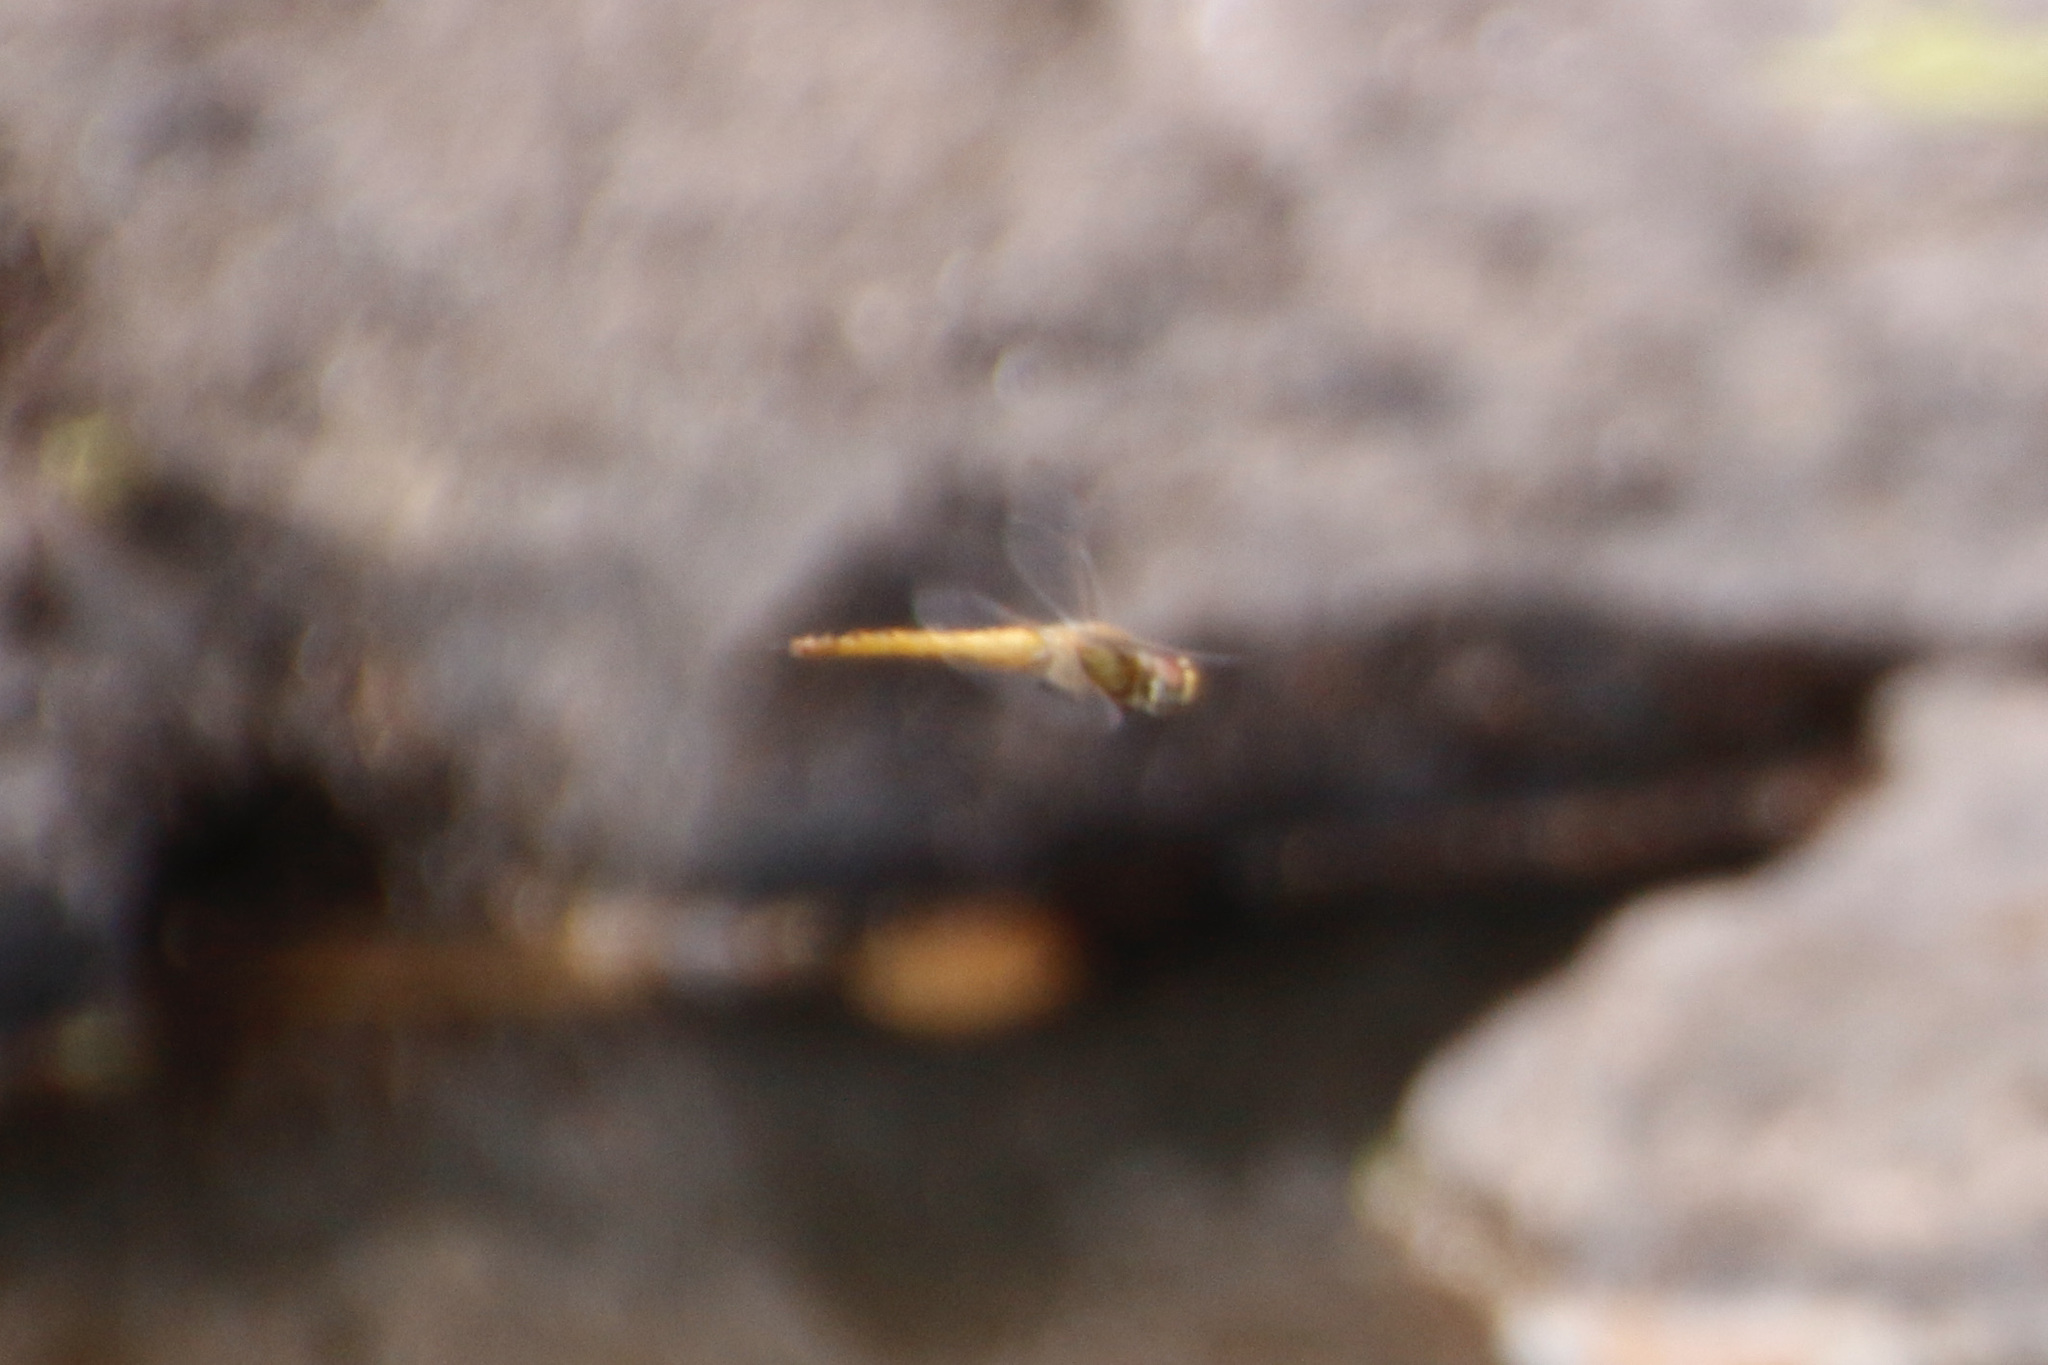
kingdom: Animalia
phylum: Arthropoda
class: Insecta
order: Odonata
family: Libellulidae
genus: Pantala
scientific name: Pantala flavescens
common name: Wandering glider
